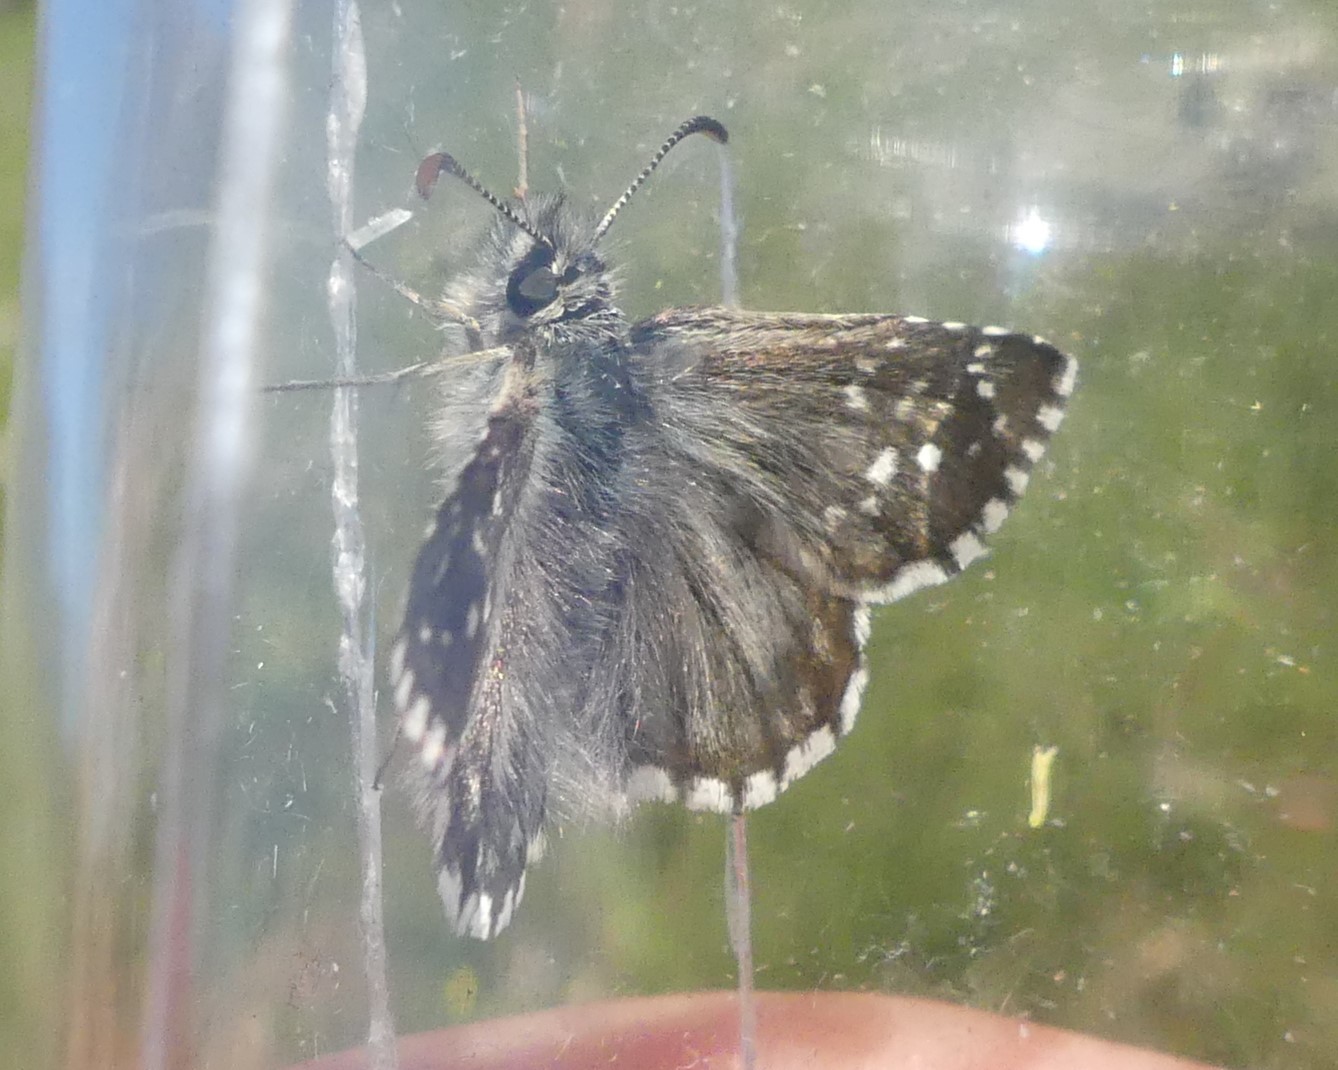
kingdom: Animalia
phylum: Arthropoda
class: Insecta
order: Lepidoptera
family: Hesperiidae
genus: Pyrgus
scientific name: Pyrgus serratulae
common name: Olive skipper
